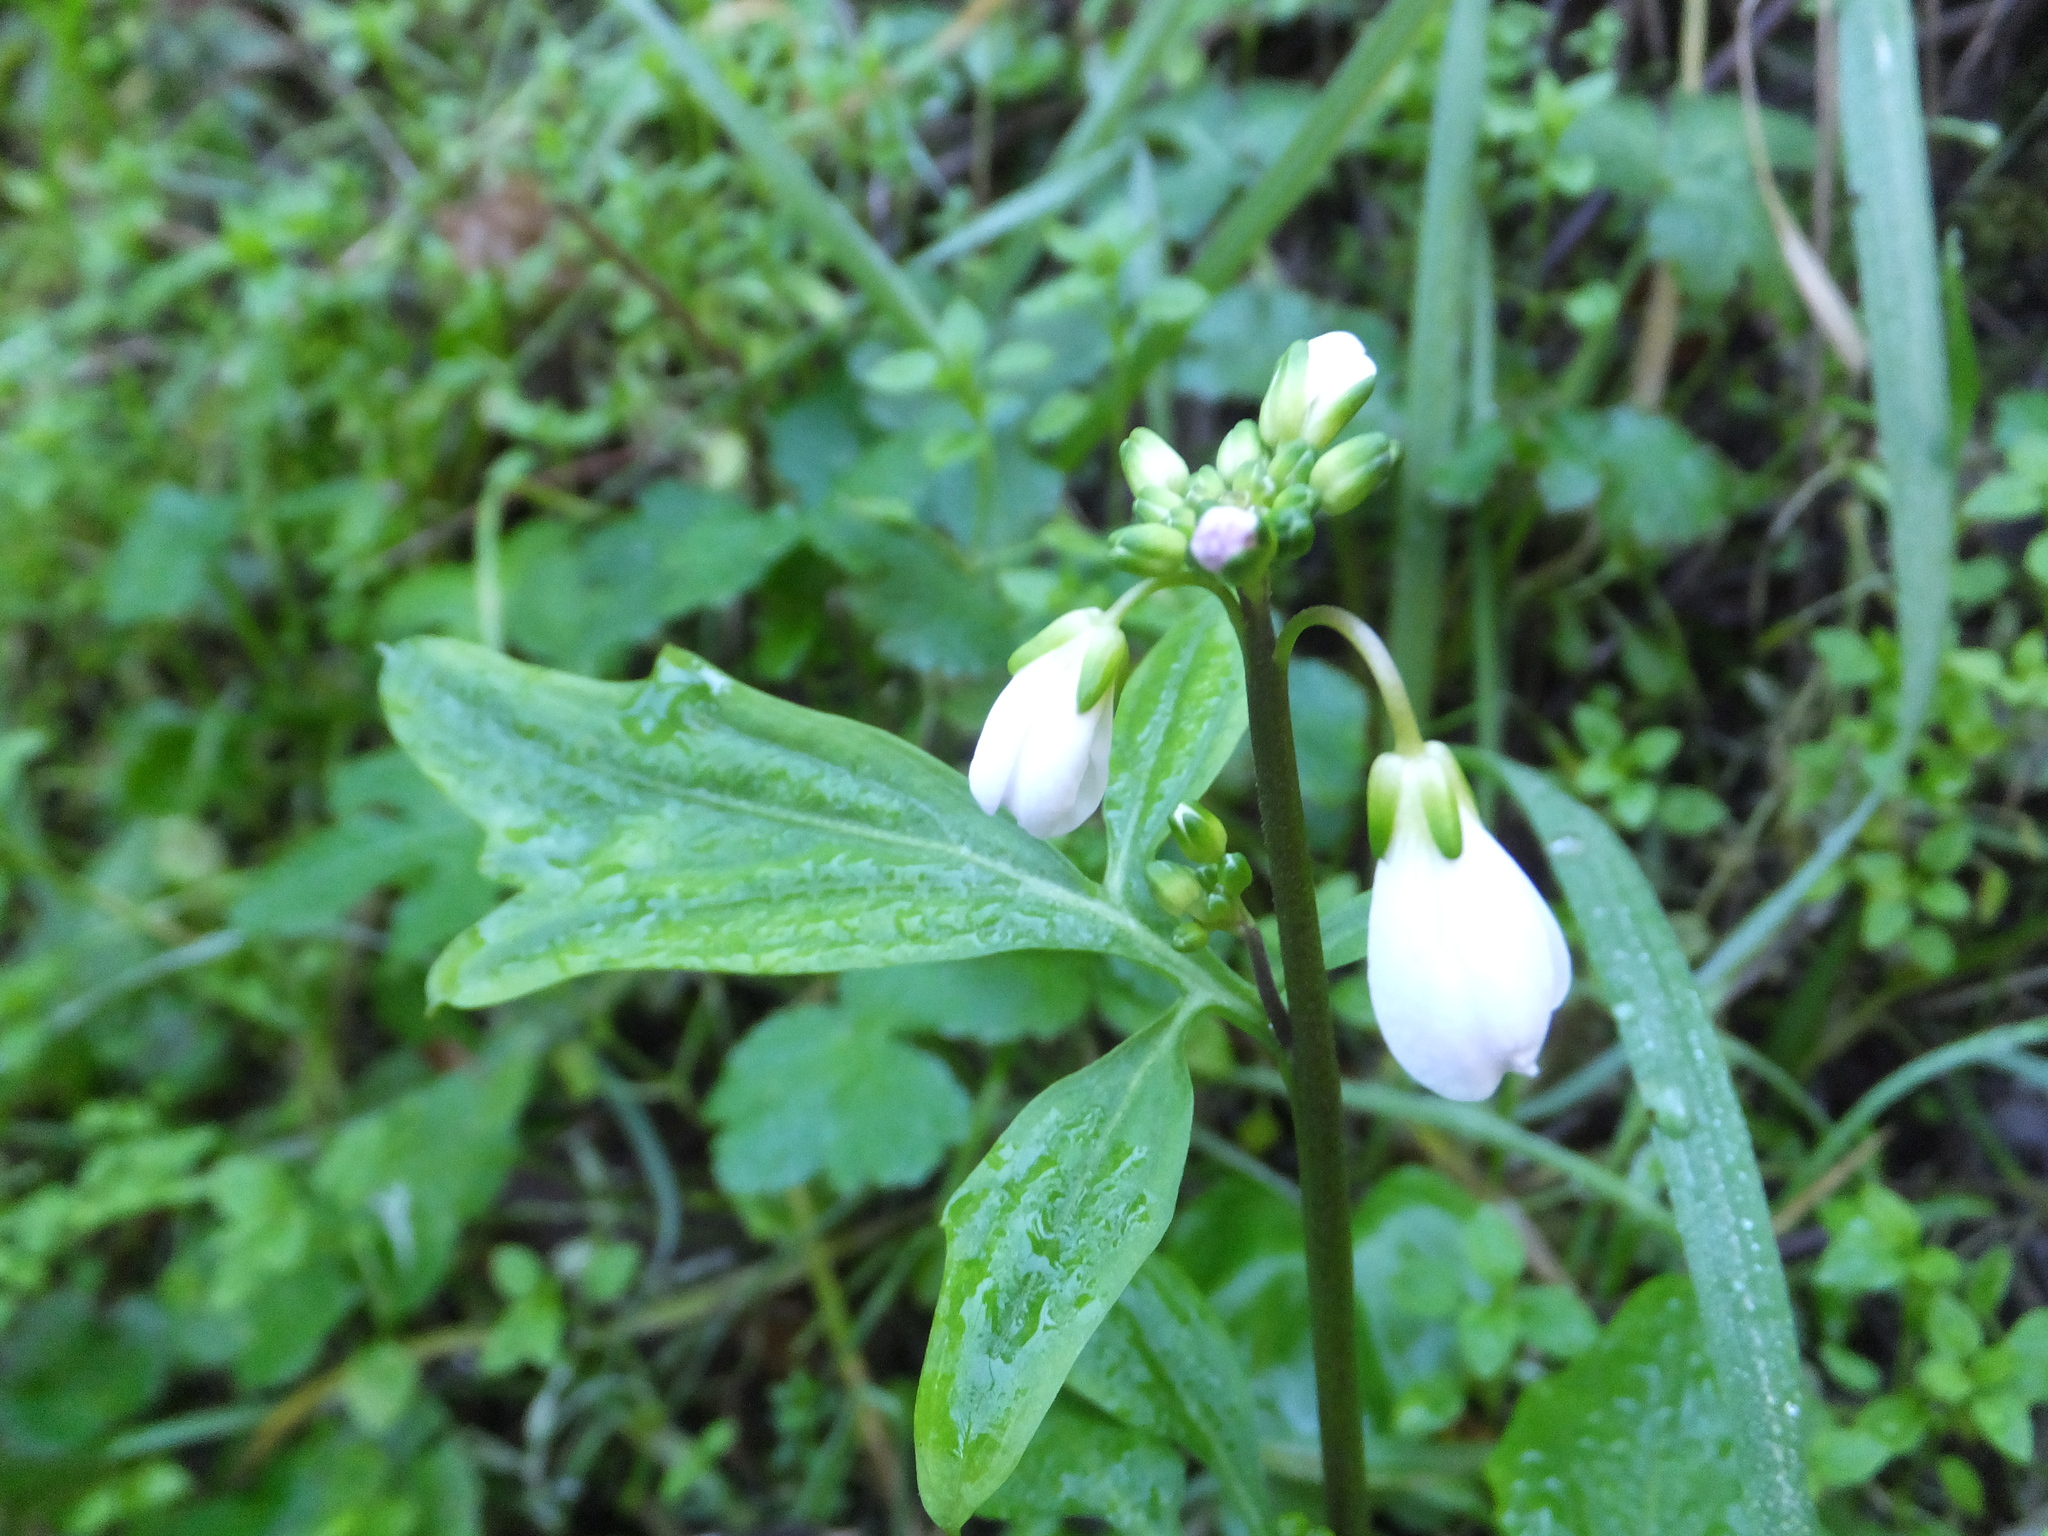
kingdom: Plantae
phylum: Tracheophyta
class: Magnoliopsida
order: Brassicales
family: Brassicaceae
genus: Cardamine
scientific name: Cardamine californica
